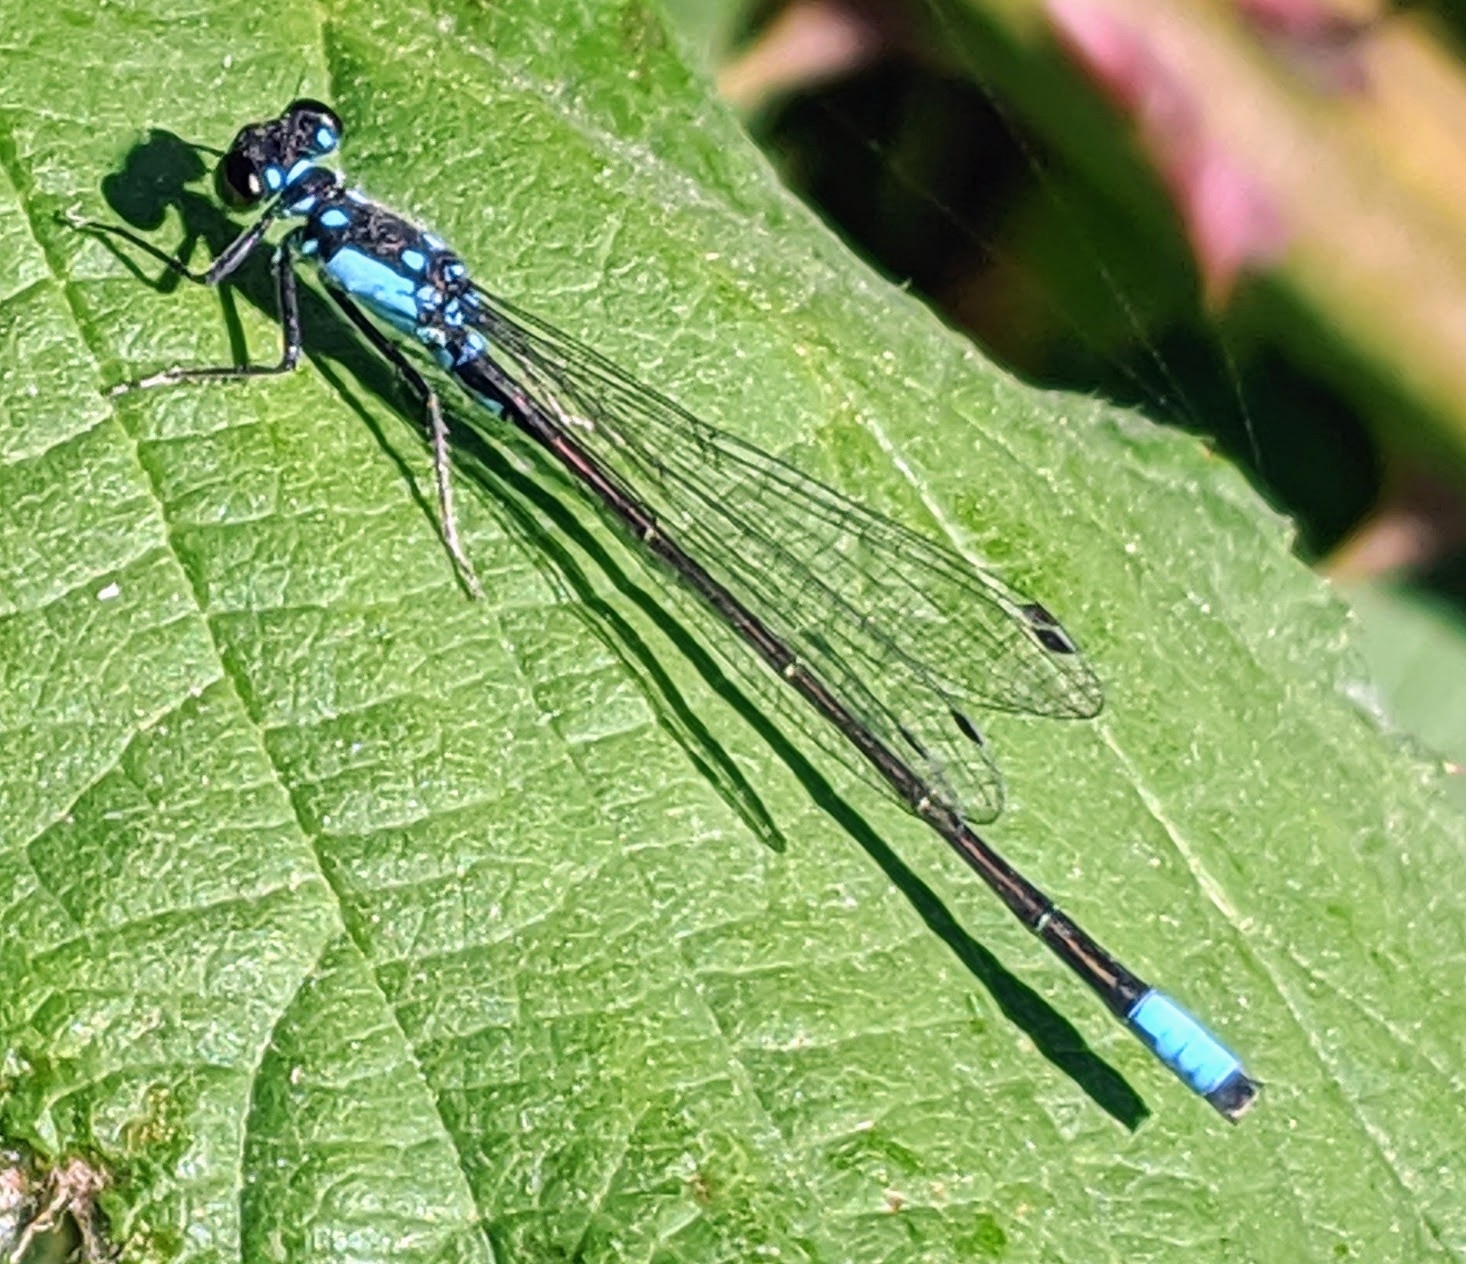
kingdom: Animalia
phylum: Arthropoda
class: Insecta
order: Odonata
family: Coenagrionidae
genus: Ischnura
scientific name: Ischnura cervula
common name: Pacific forktail
